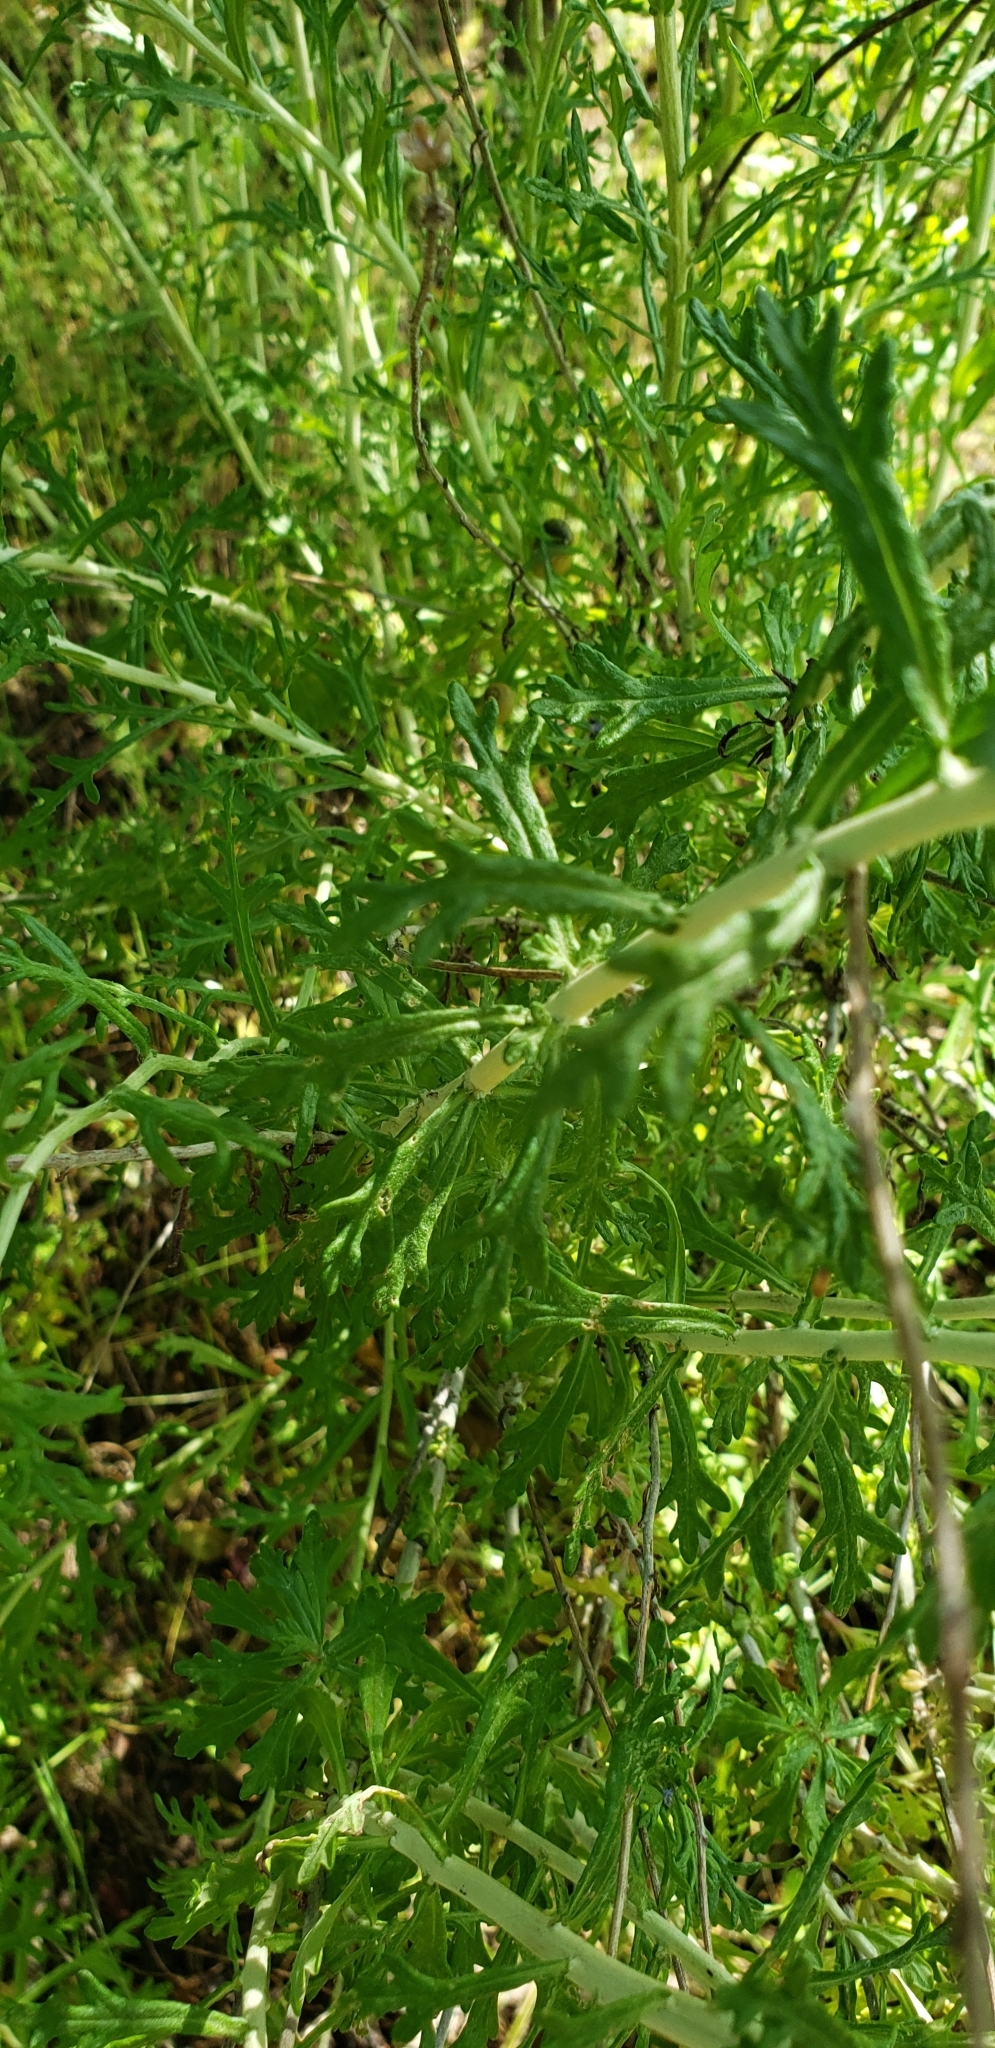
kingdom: Plantae
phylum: Tracheophyta
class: Magnoliopsida
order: Asterales
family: Asteraceae
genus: Eriophyllum
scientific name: Eriophyllum confertiflorum
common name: Golden-yarrow
